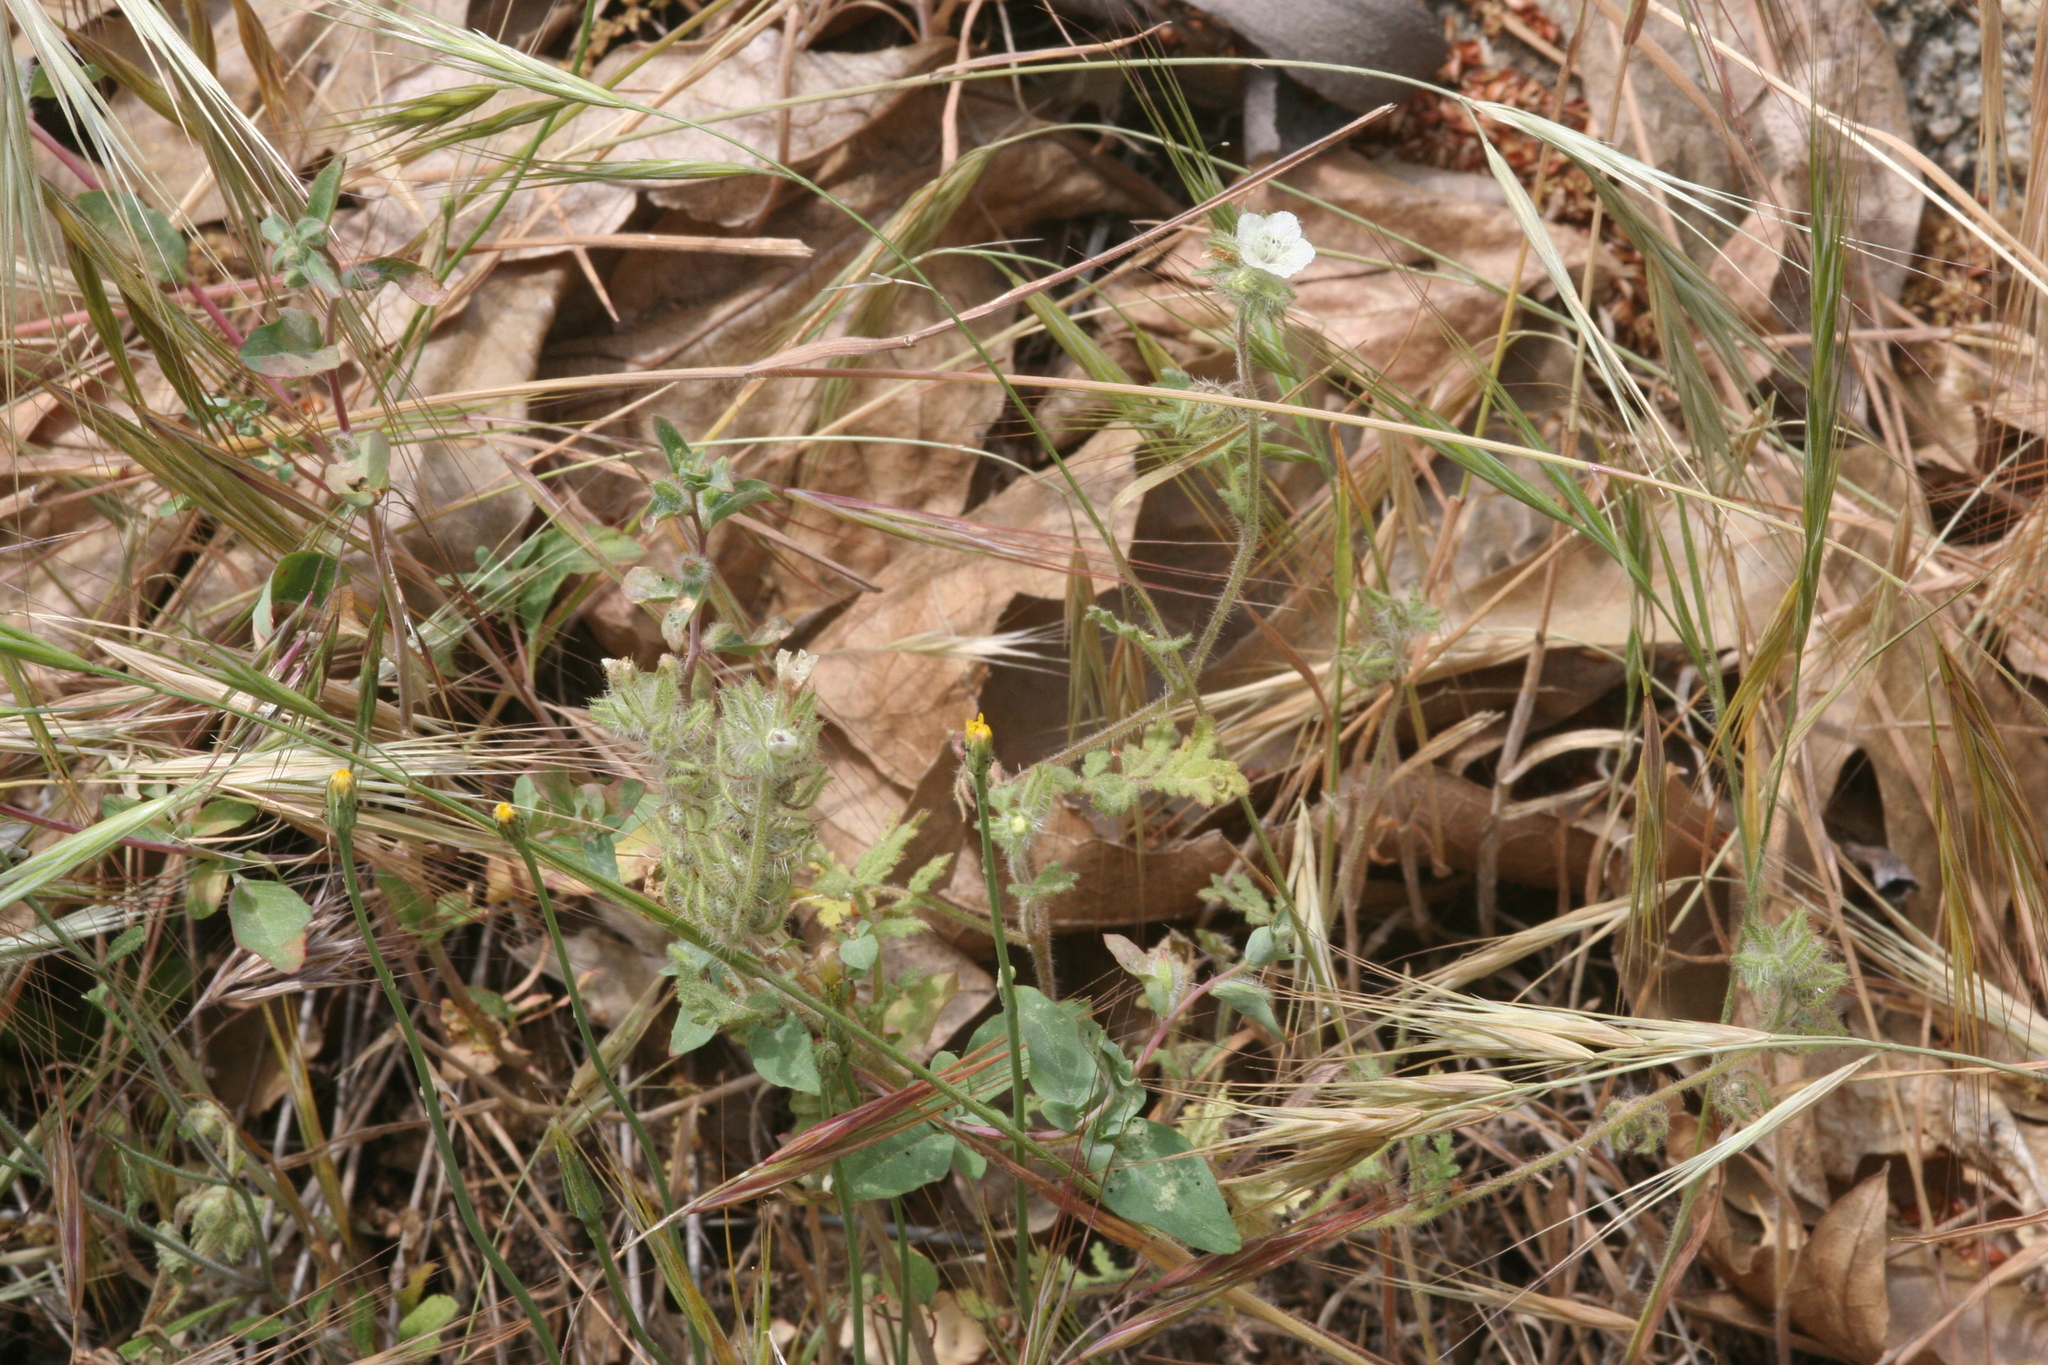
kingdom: Plantae
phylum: Tracheophyta
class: Magnoliopsida
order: Boraginales
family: Hydrophyllaceae
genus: Phacelia
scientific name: Phacelia cicutaria
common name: Caterpillar phacelia
